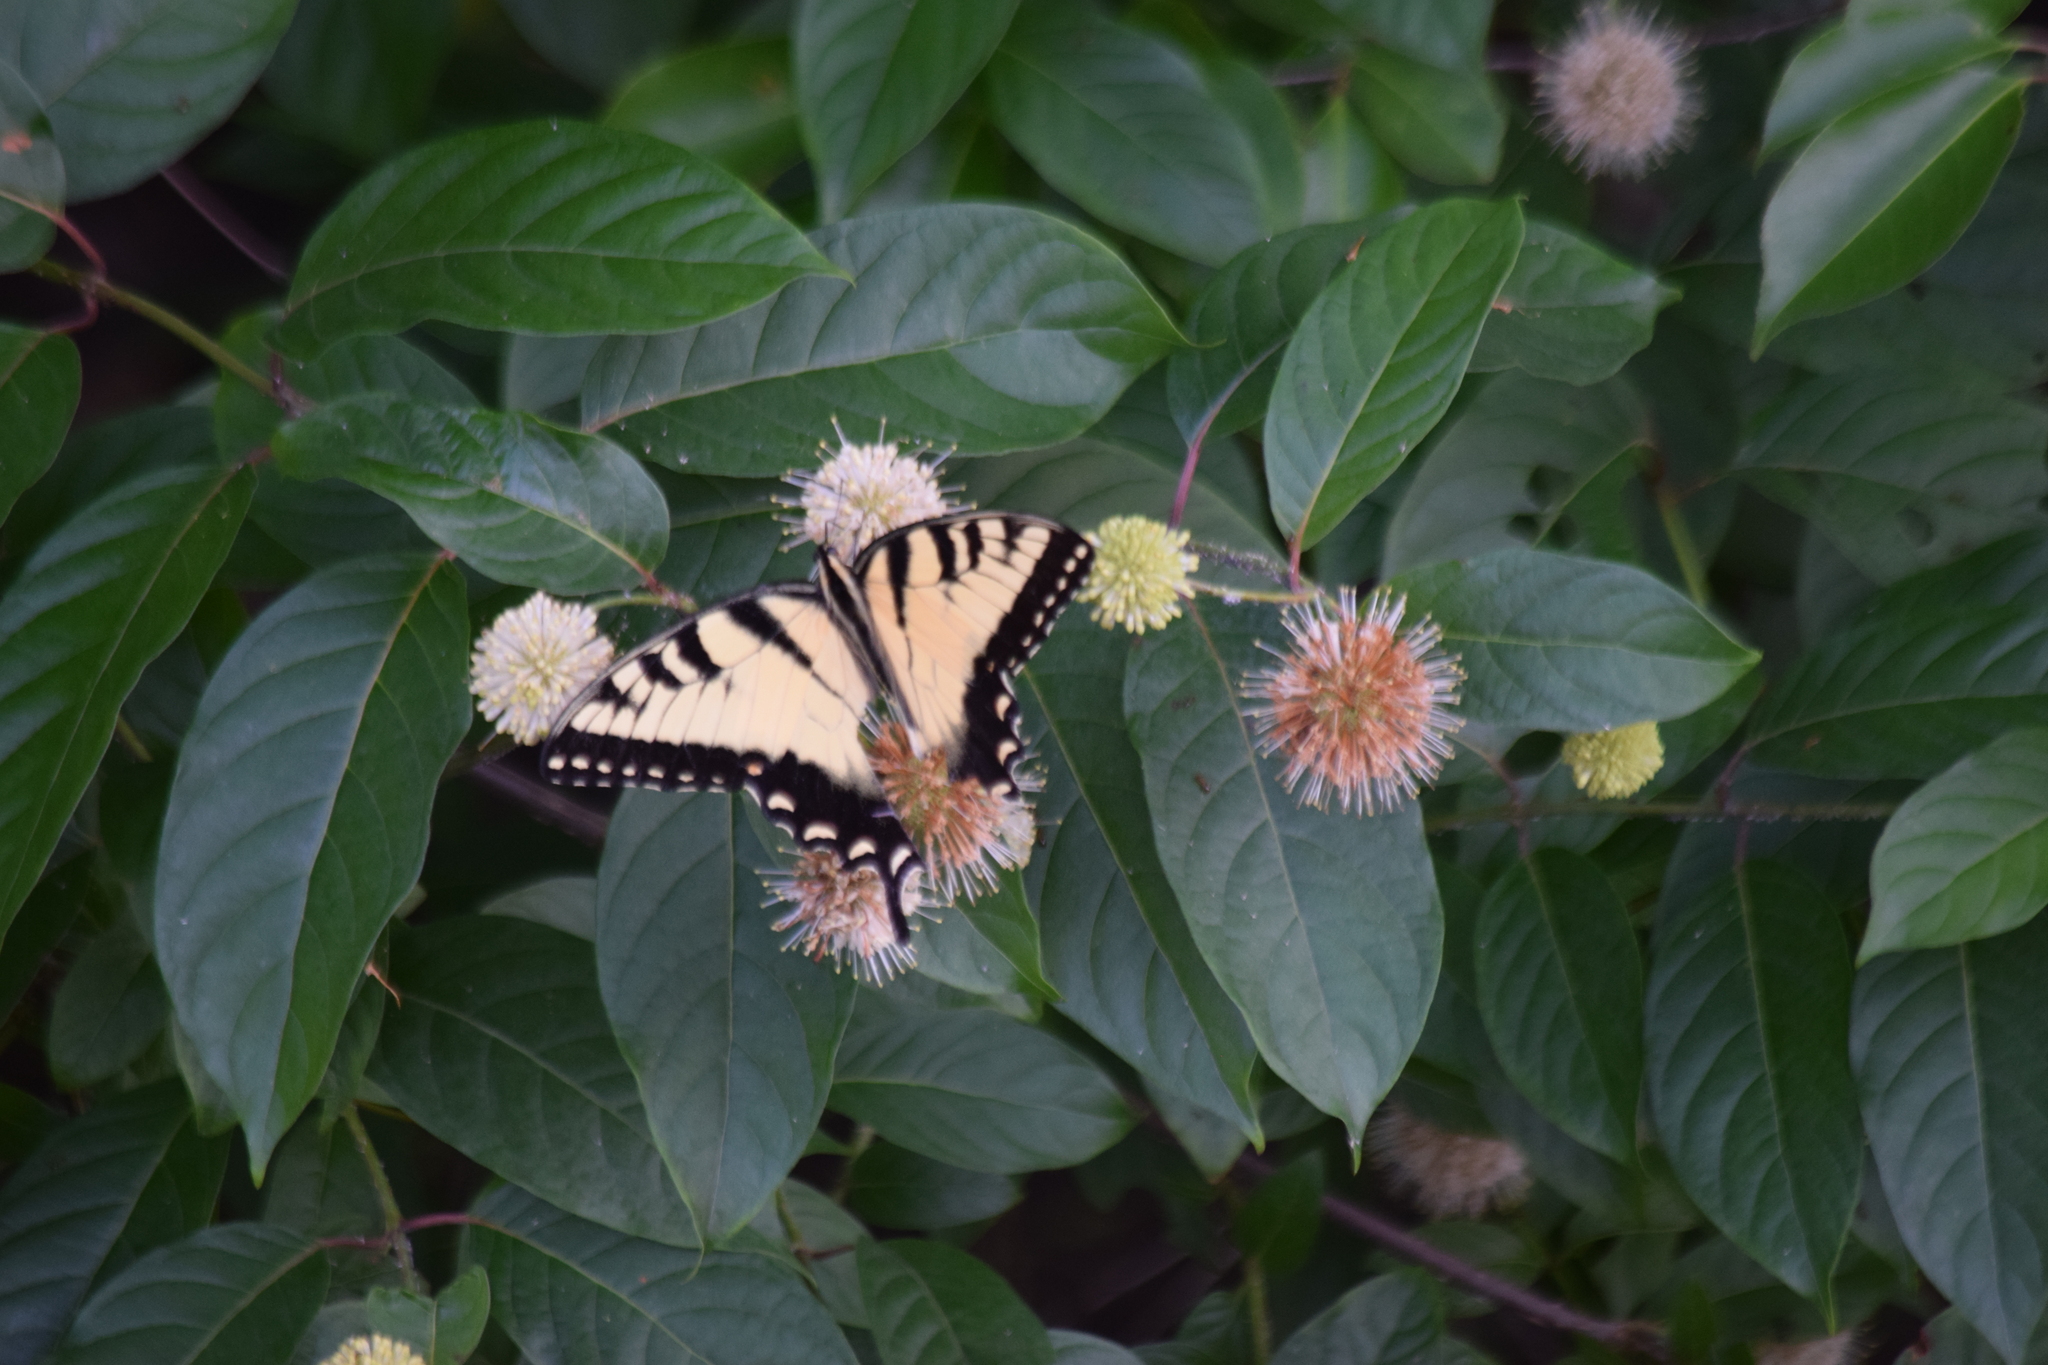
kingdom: Animalia
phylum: Arthropoda
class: Insecta
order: Lepidoptera
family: Papilionidae
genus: Papilio
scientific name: Papilio glaucus
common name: Tiger swallowtail
